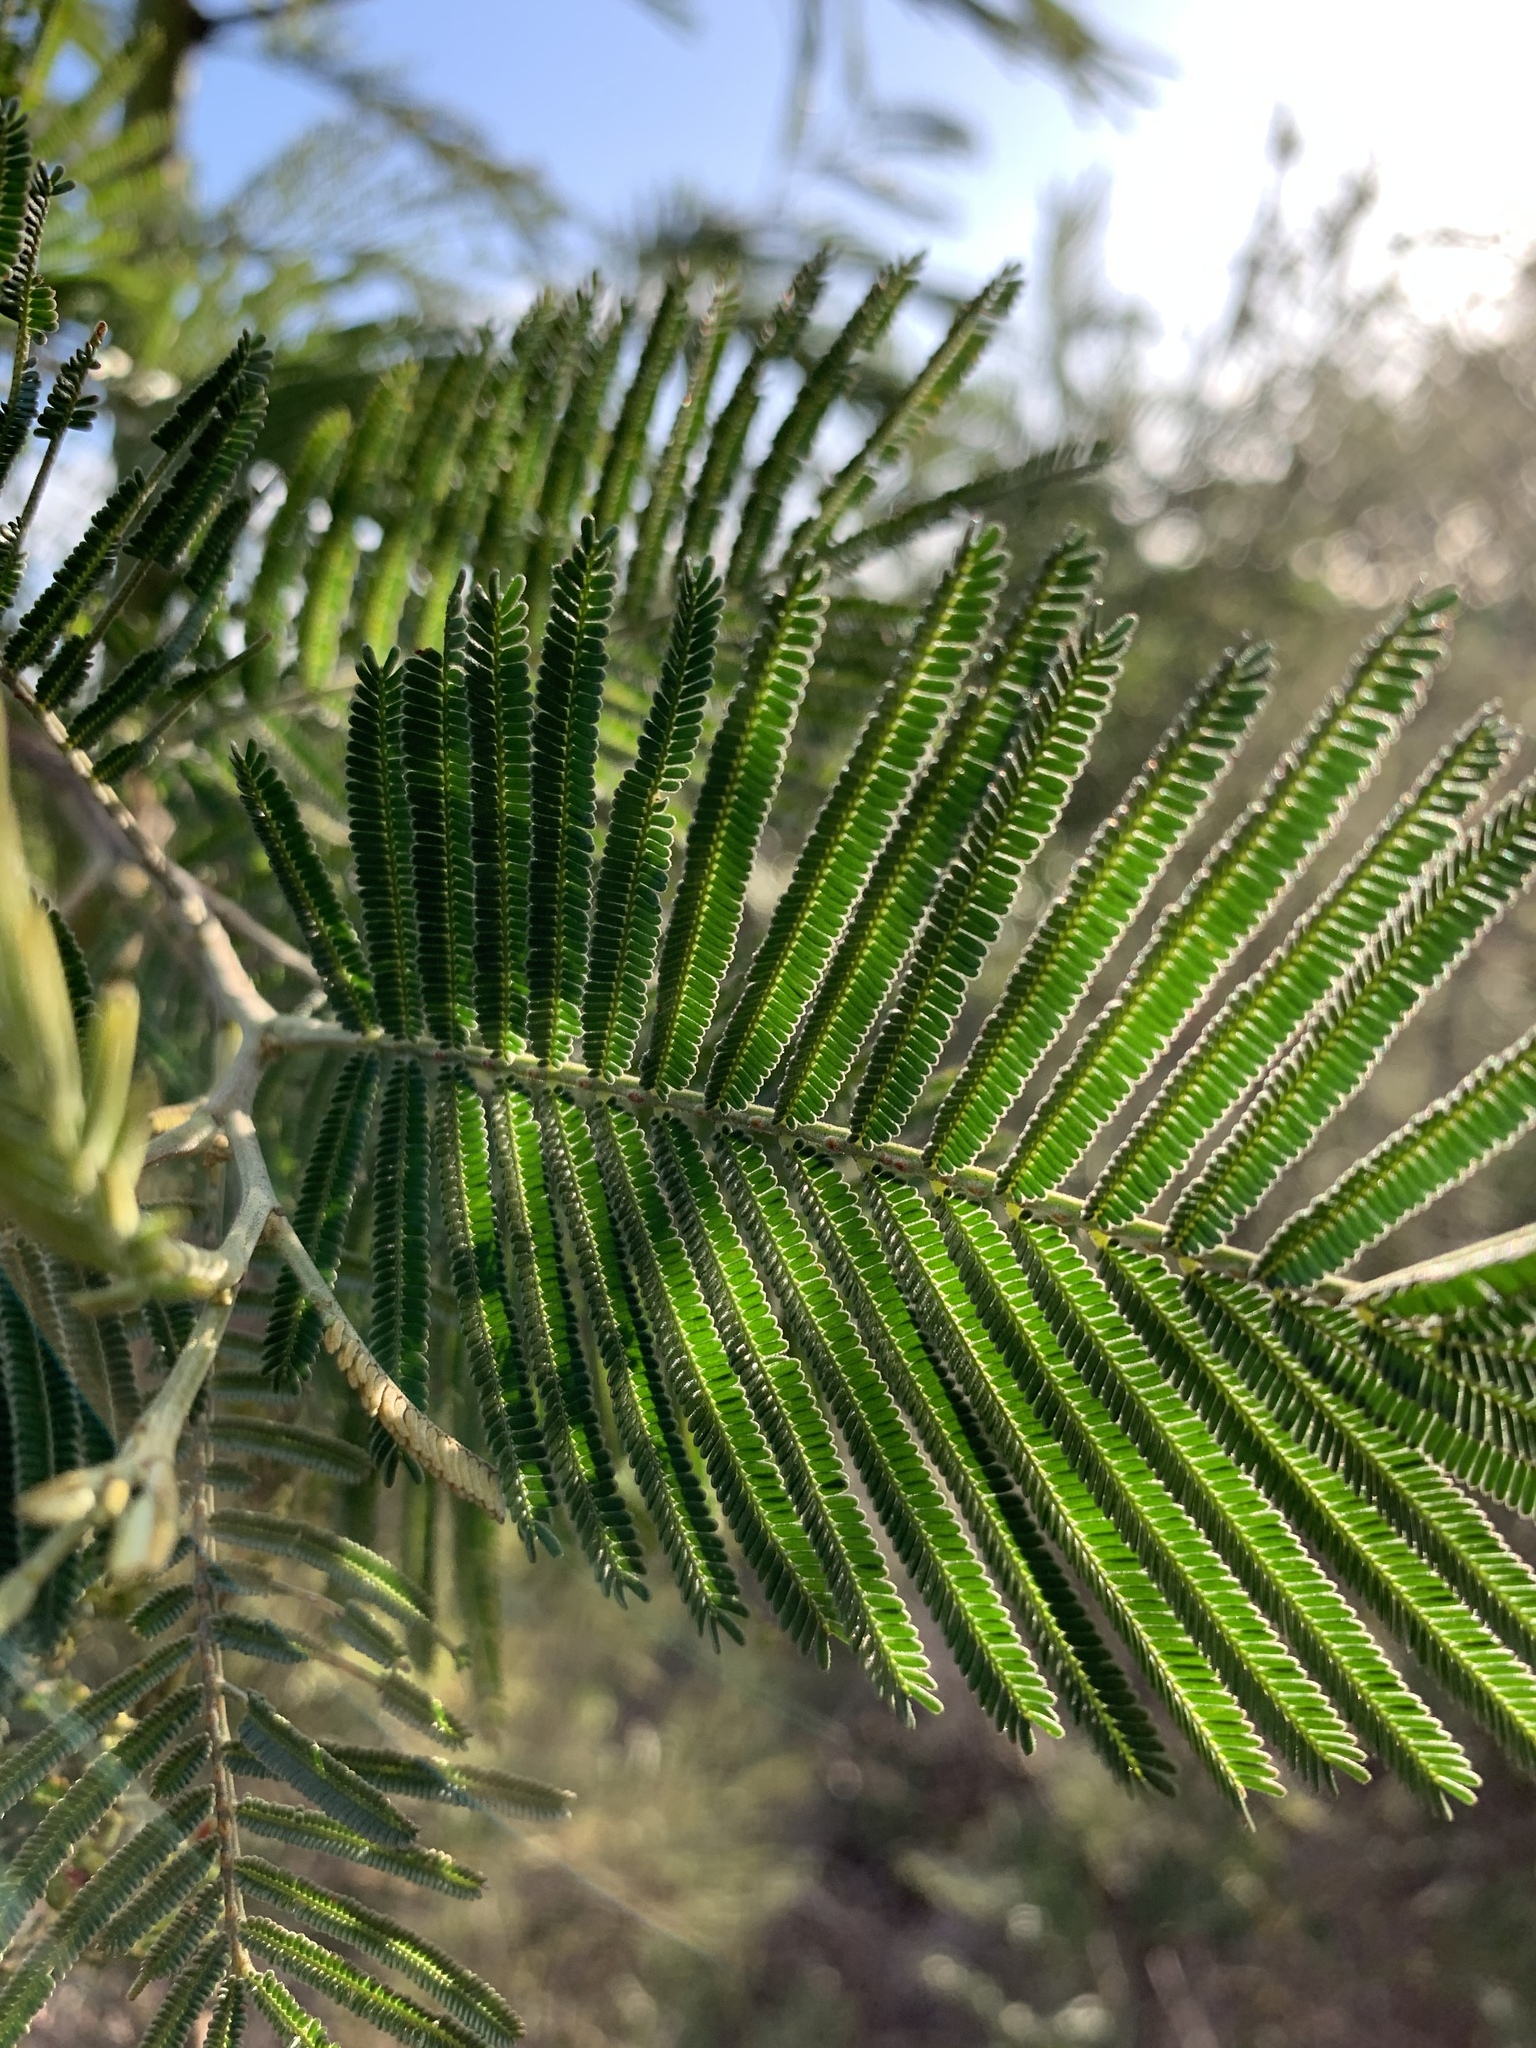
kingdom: Plantae
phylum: Tracheophyta
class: Magnoliopsida
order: Fabales
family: Fabaceae
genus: Acacia
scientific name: Acacia mearnsii
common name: Black wattle
